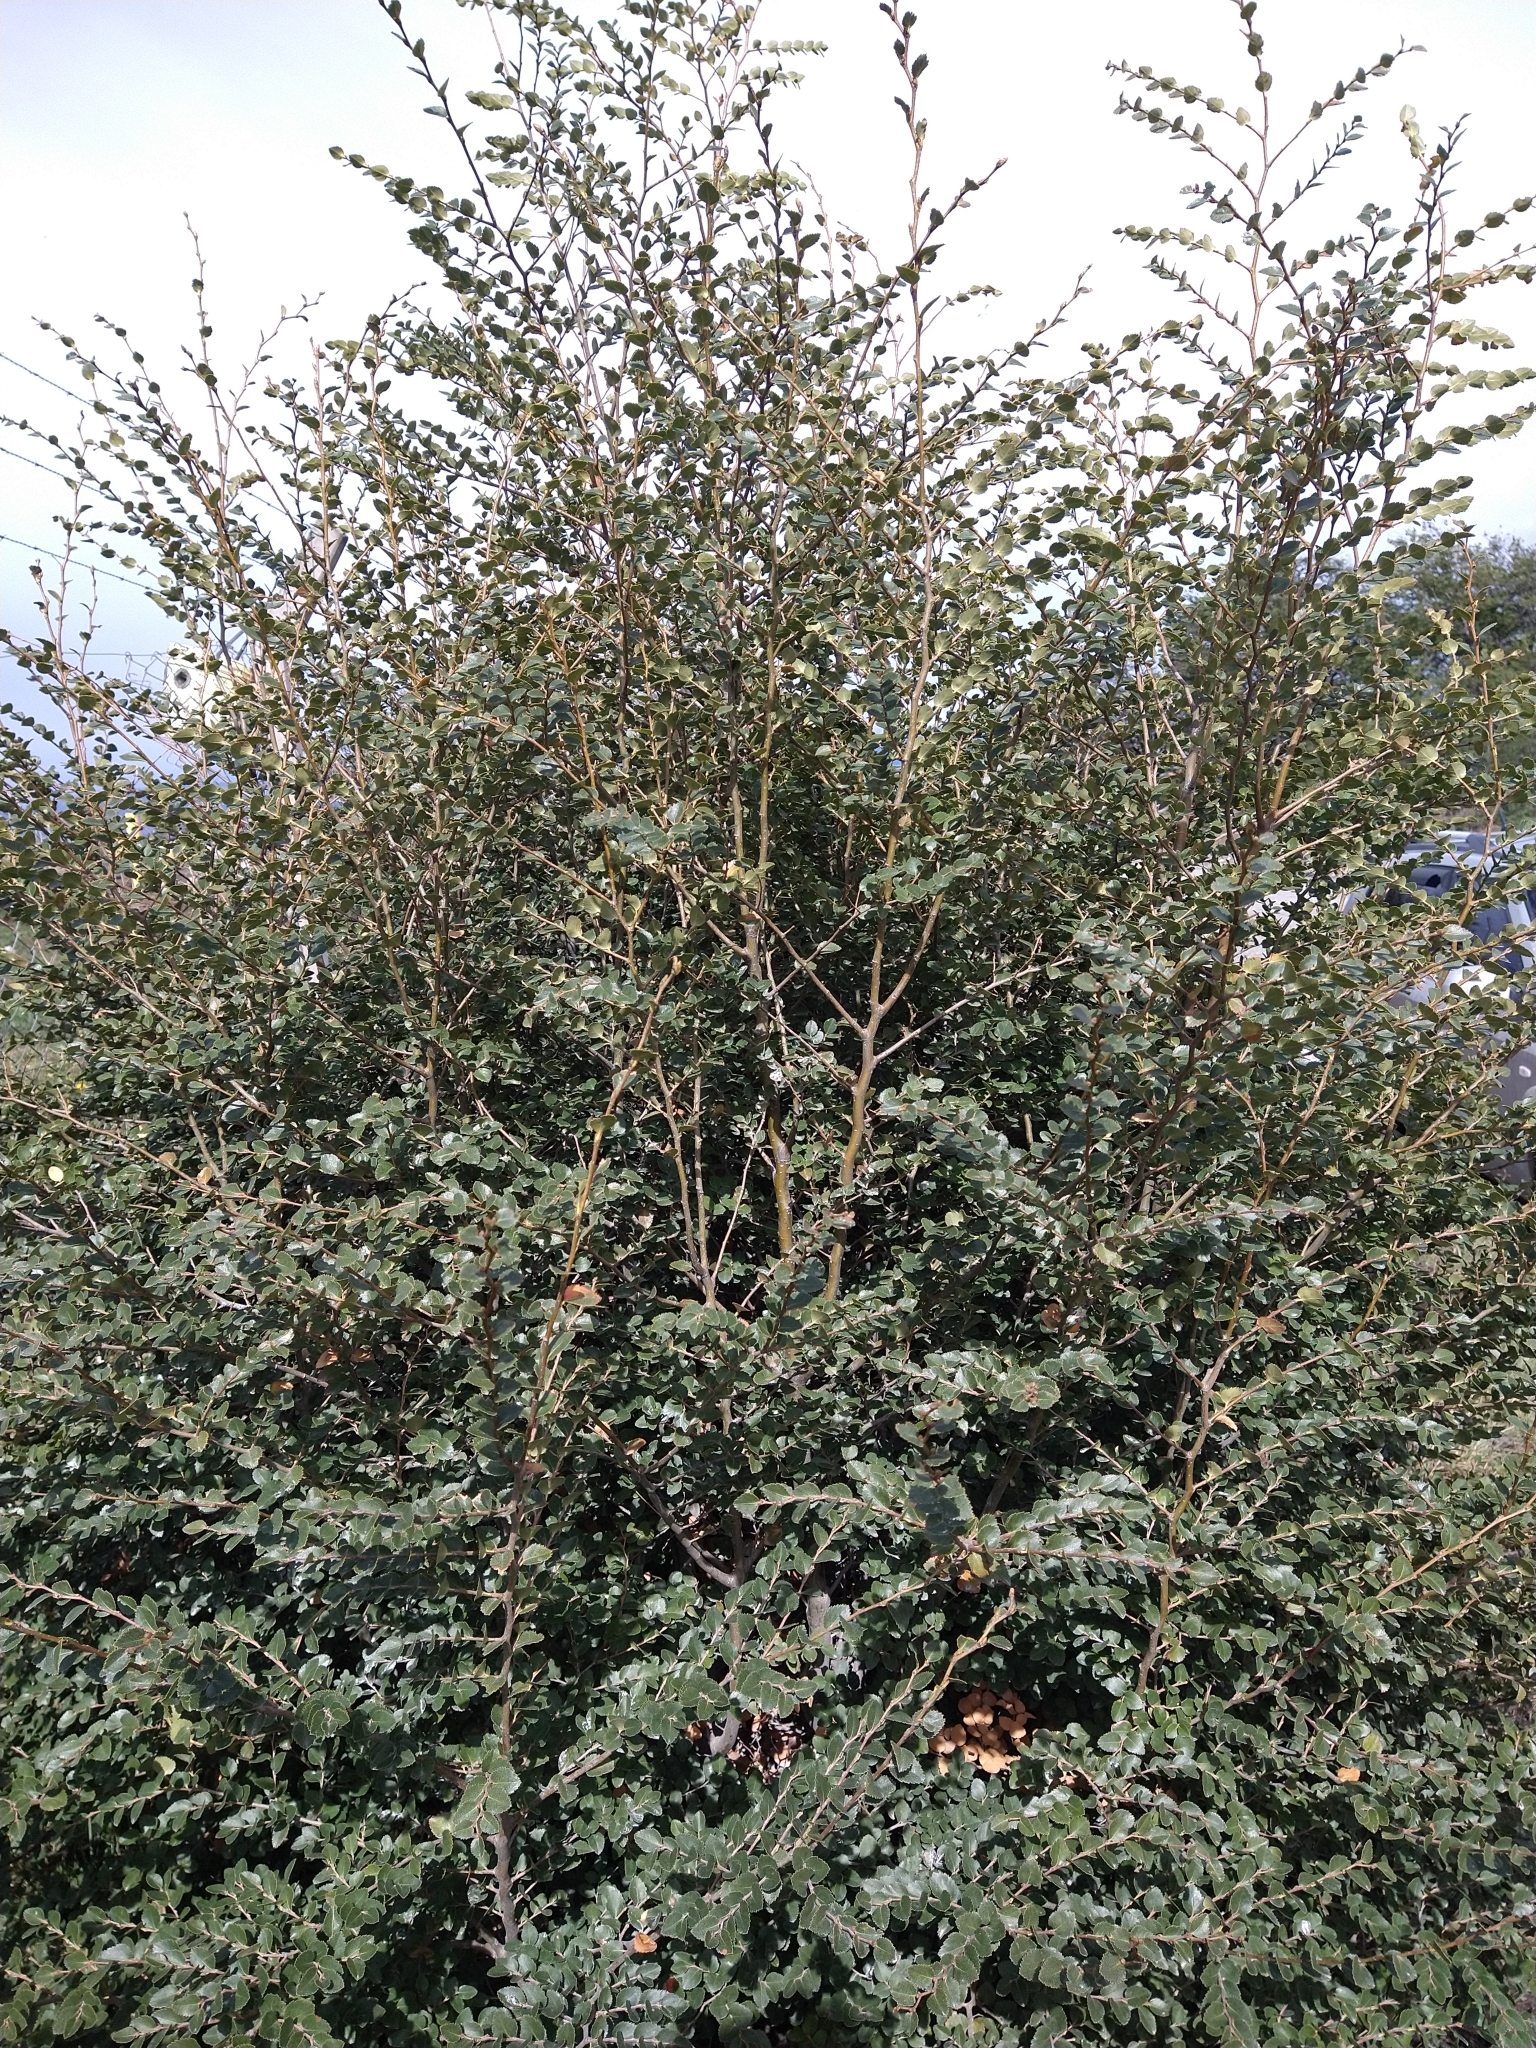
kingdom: Plantae
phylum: Tracheophyta
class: Magnoliopsida
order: Fagales
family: Nothofagaceae
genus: Nothofagus
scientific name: Nothofagus betuloides
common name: Magellan's beech
